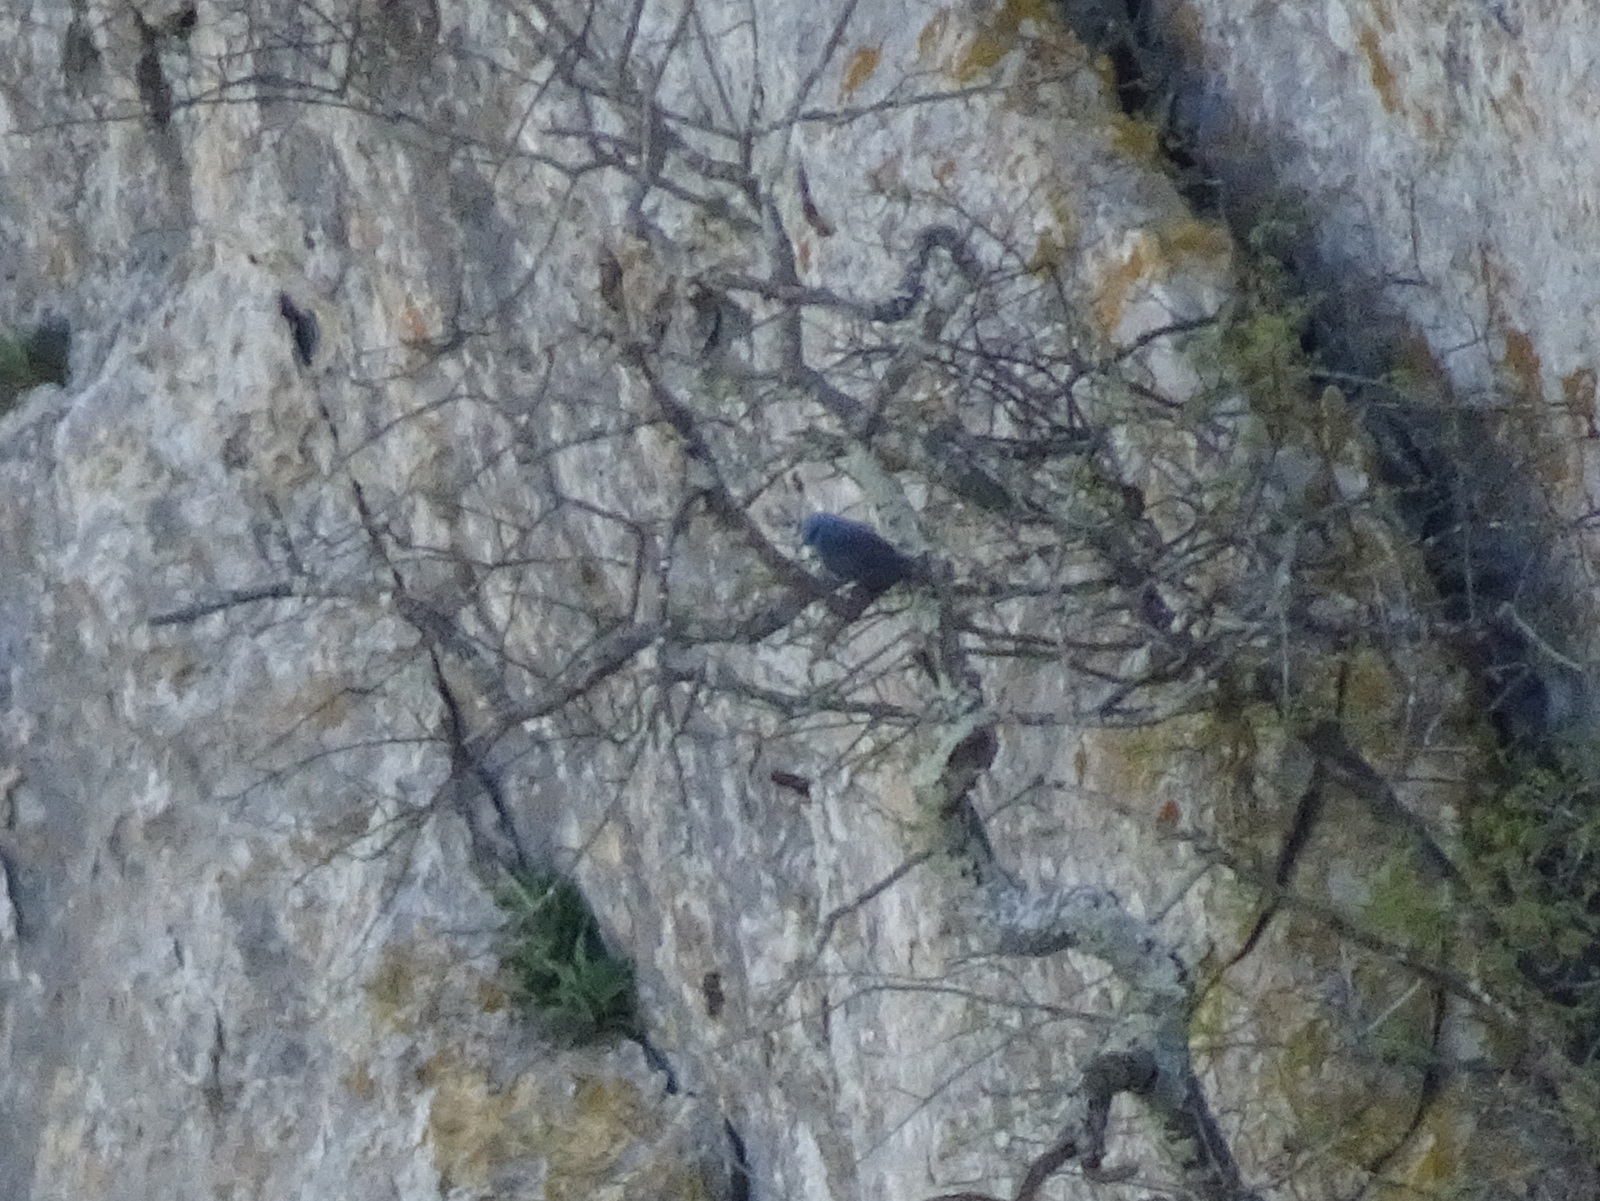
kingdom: Animalia
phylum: Chordata
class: Aves
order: Passeriformes
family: Muscicapidae
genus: Monticola
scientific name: Monticola solitarius
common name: Blue rock thrush
